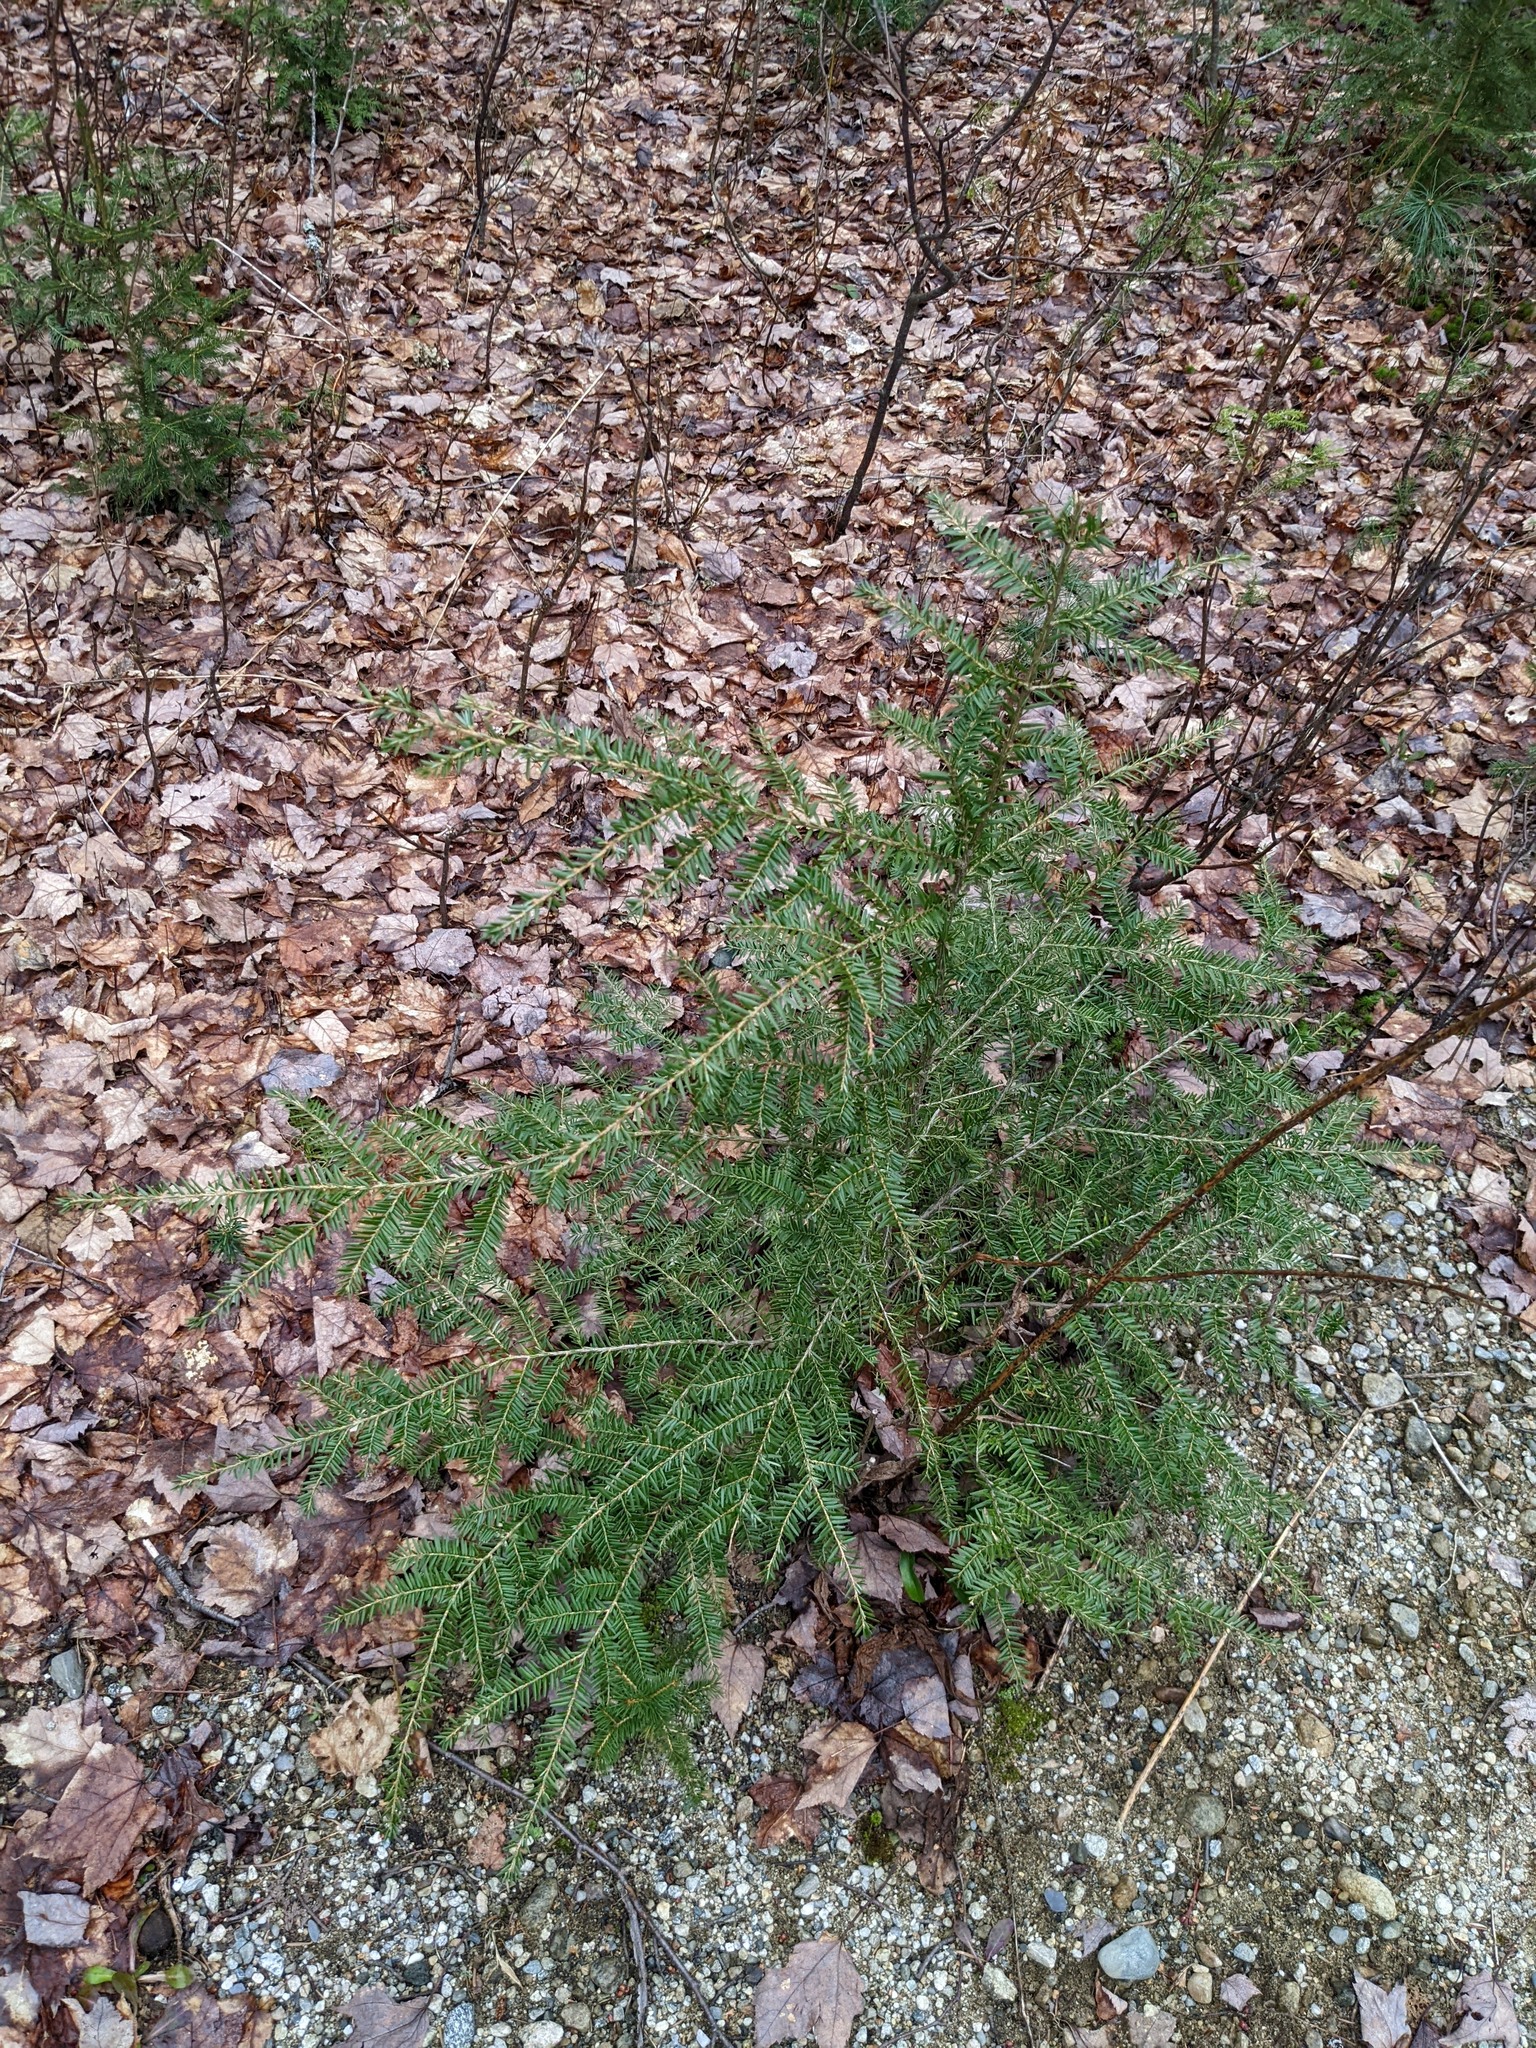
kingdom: Plantae
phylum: Tracheophyta
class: Pinopsida
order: Pinales
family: Pinaceae
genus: Tsuga
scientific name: Tsuga canadensis
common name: Eastern hemlock
